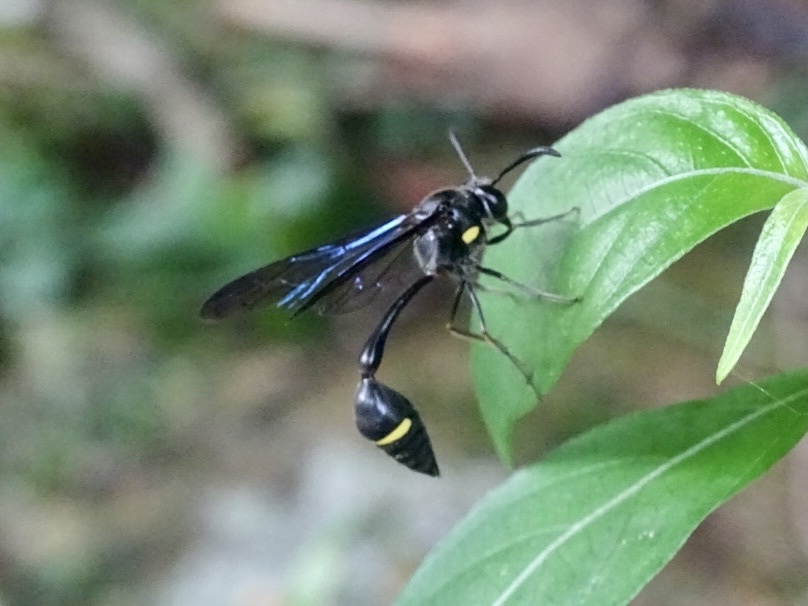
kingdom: Animalia
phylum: Arthropoda
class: Insecta
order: Hymenoptera
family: Vespidae
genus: Eustenogaster
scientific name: Eustenogaster nigra
